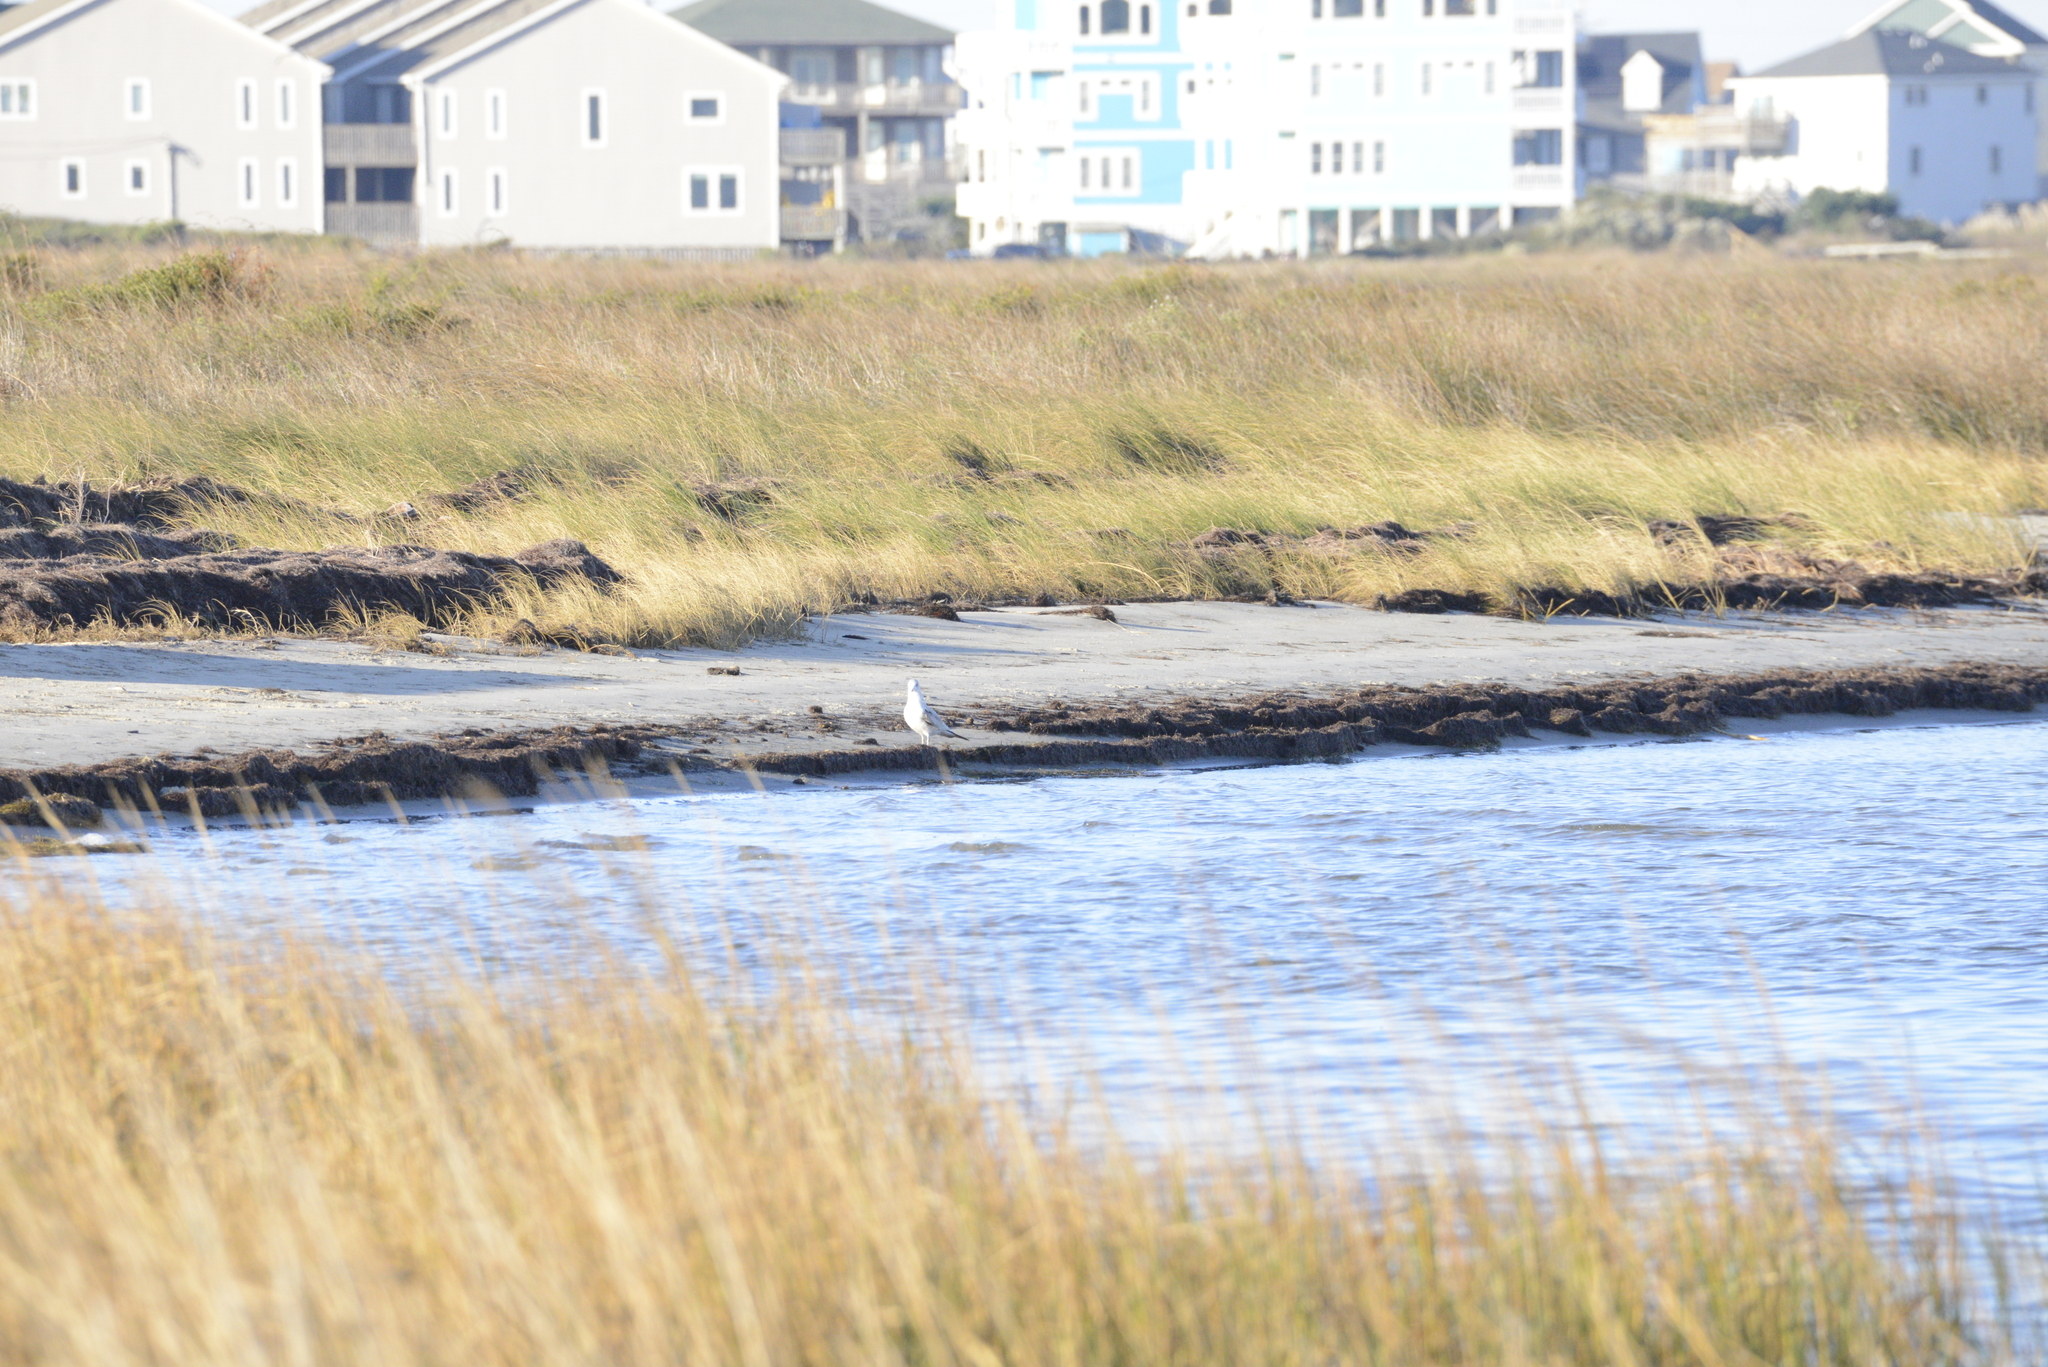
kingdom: Animalia
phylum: Chordata
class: Aves
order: Charadriiformes
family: Laridae
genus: Larus
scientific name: Larus delawarensis
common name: Ring-billed gull
